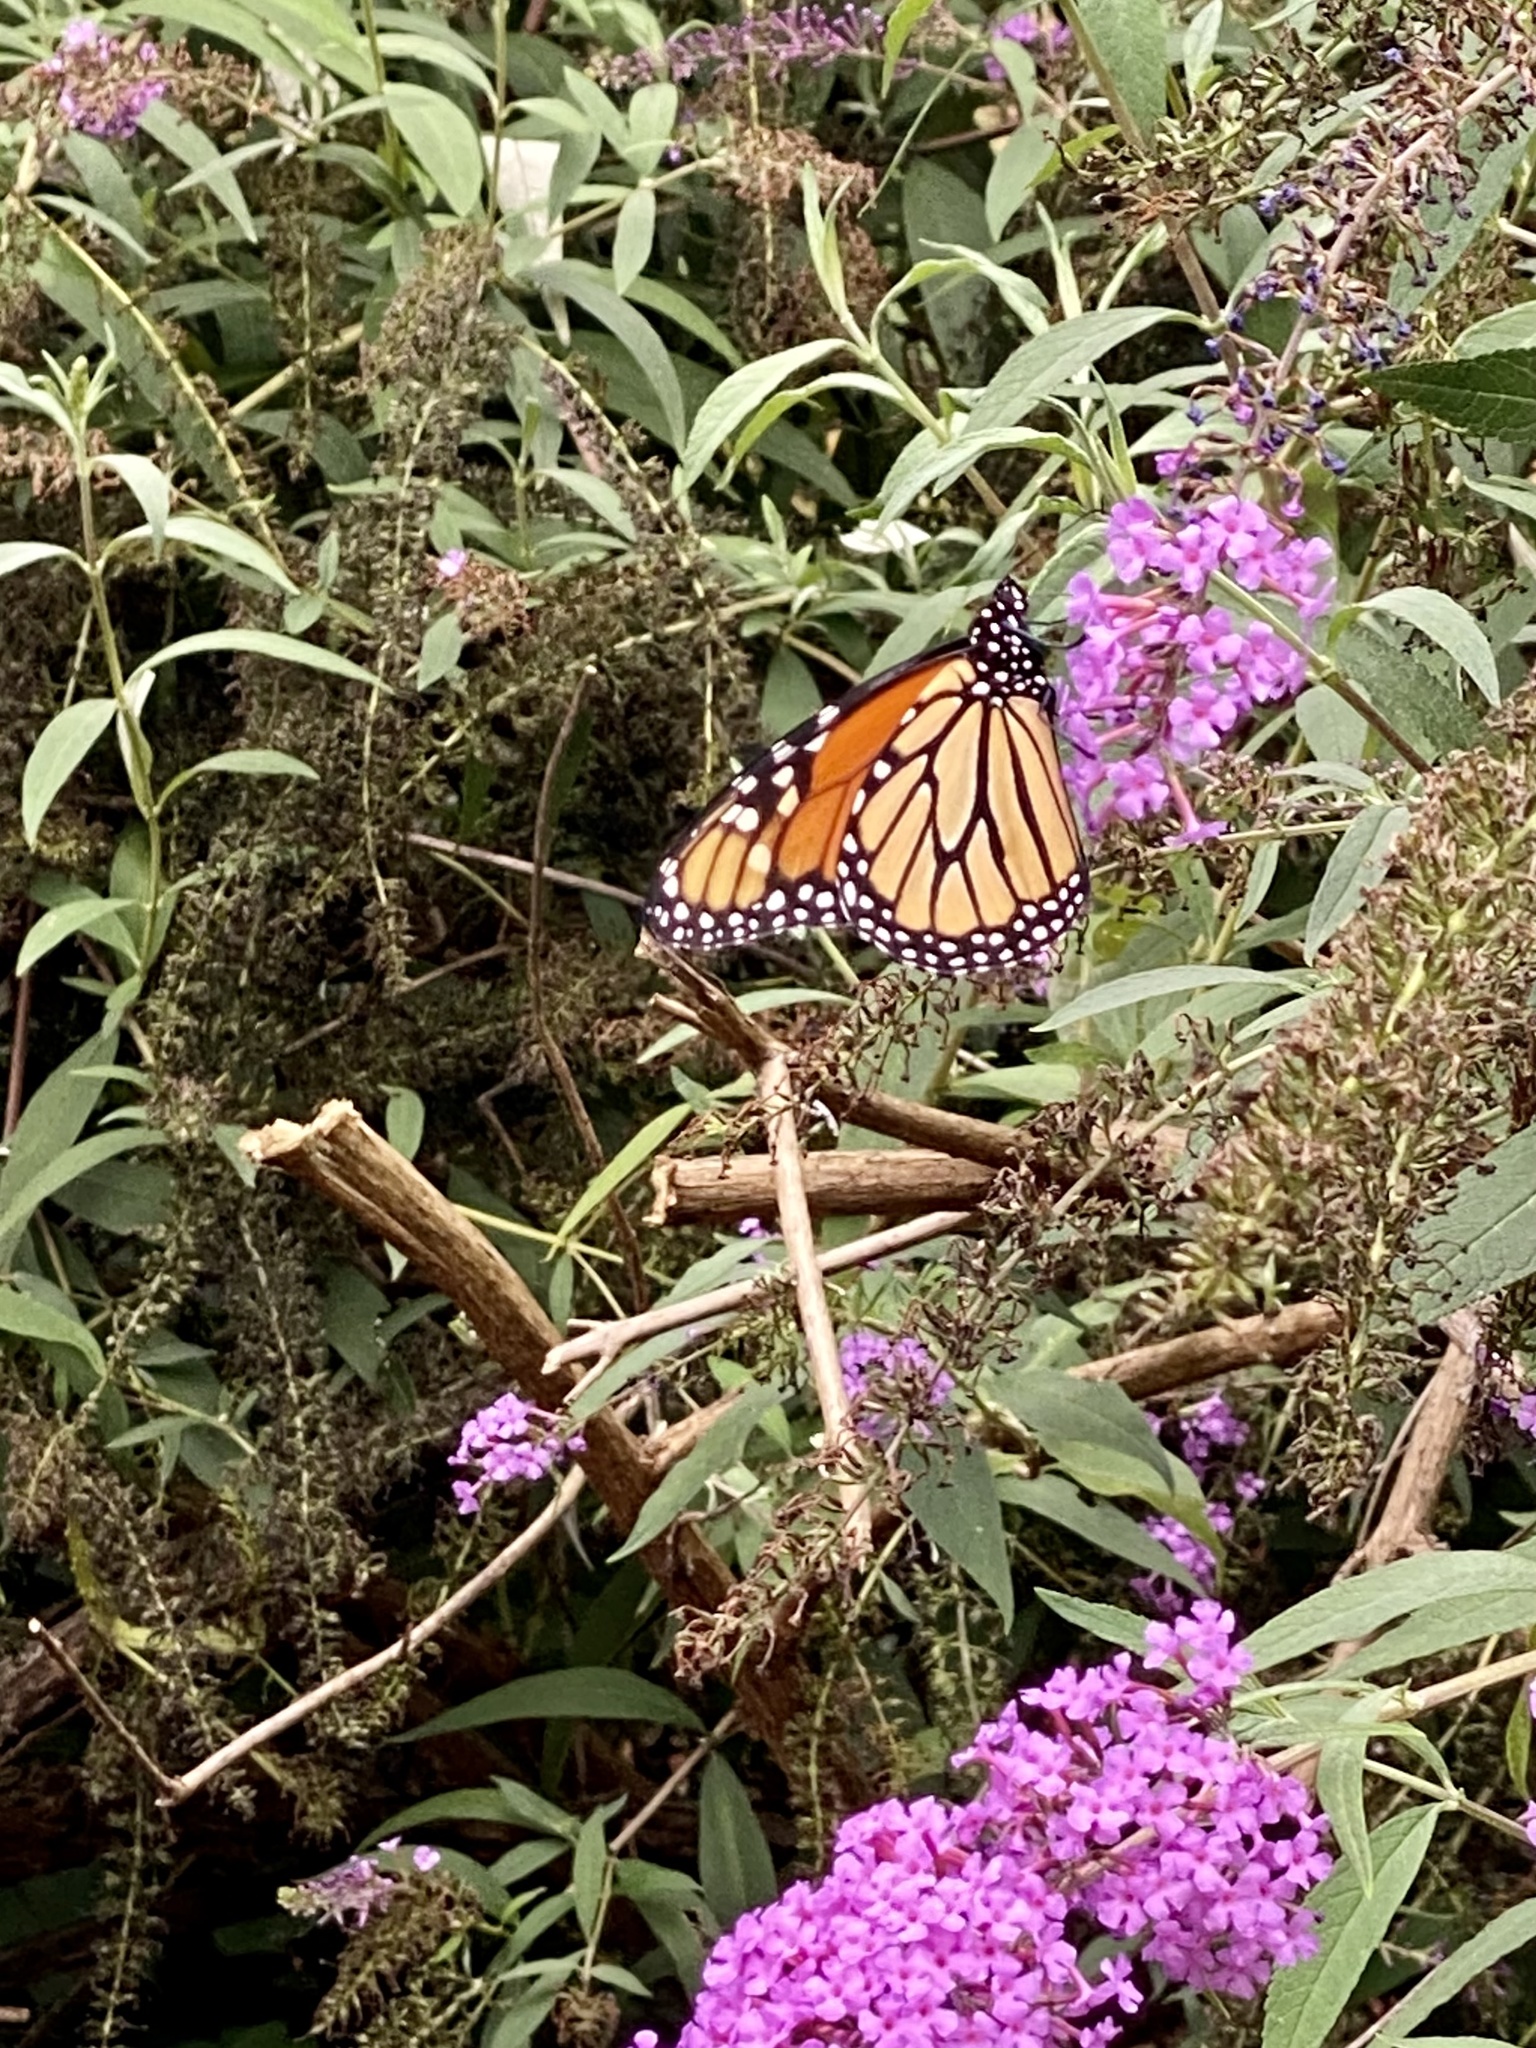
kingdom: Animalia
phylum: Arthropoda
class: Insecta
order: Lepidoptera
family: Nymphalidae
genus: Danaus
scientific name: Danaus plexippus
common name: Monarch
